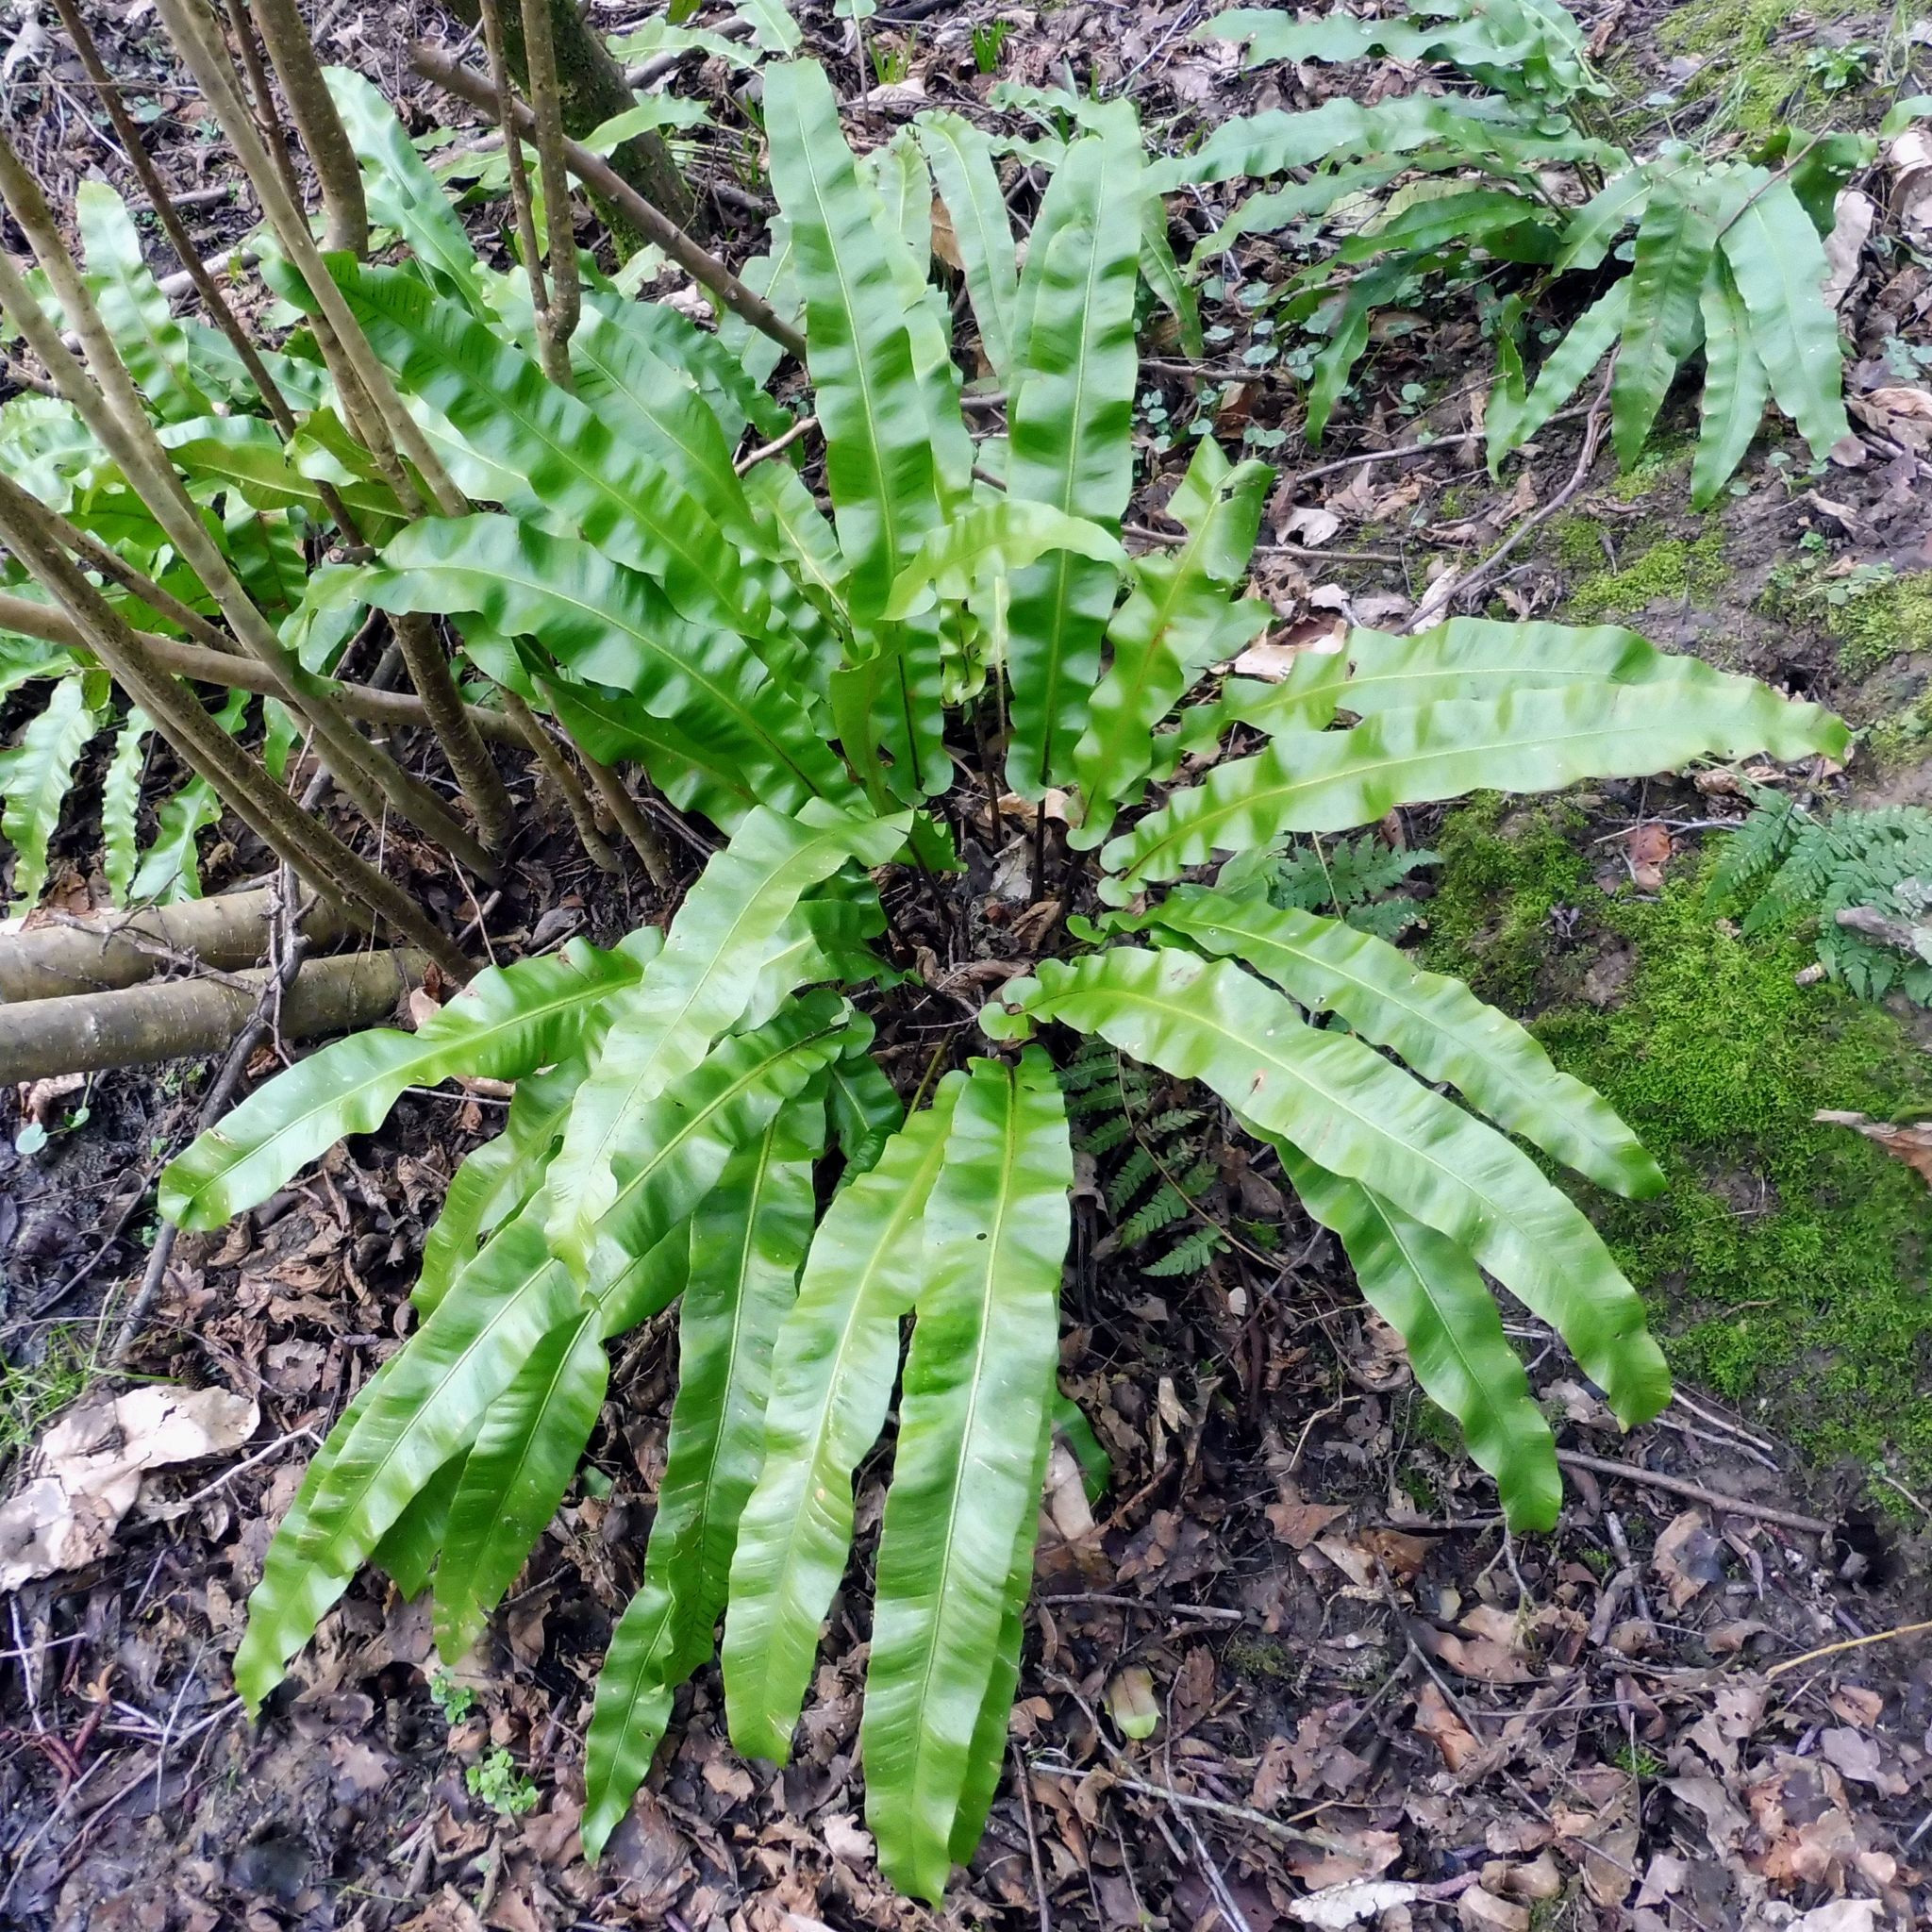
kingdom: Plantae
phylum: Tracheophyta
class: Polypodiopsida
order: Polypodiales
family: Aspleniaceae
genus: Asplenium
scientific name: Asplenium scolopendrium
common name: Hart's-tongue fern
